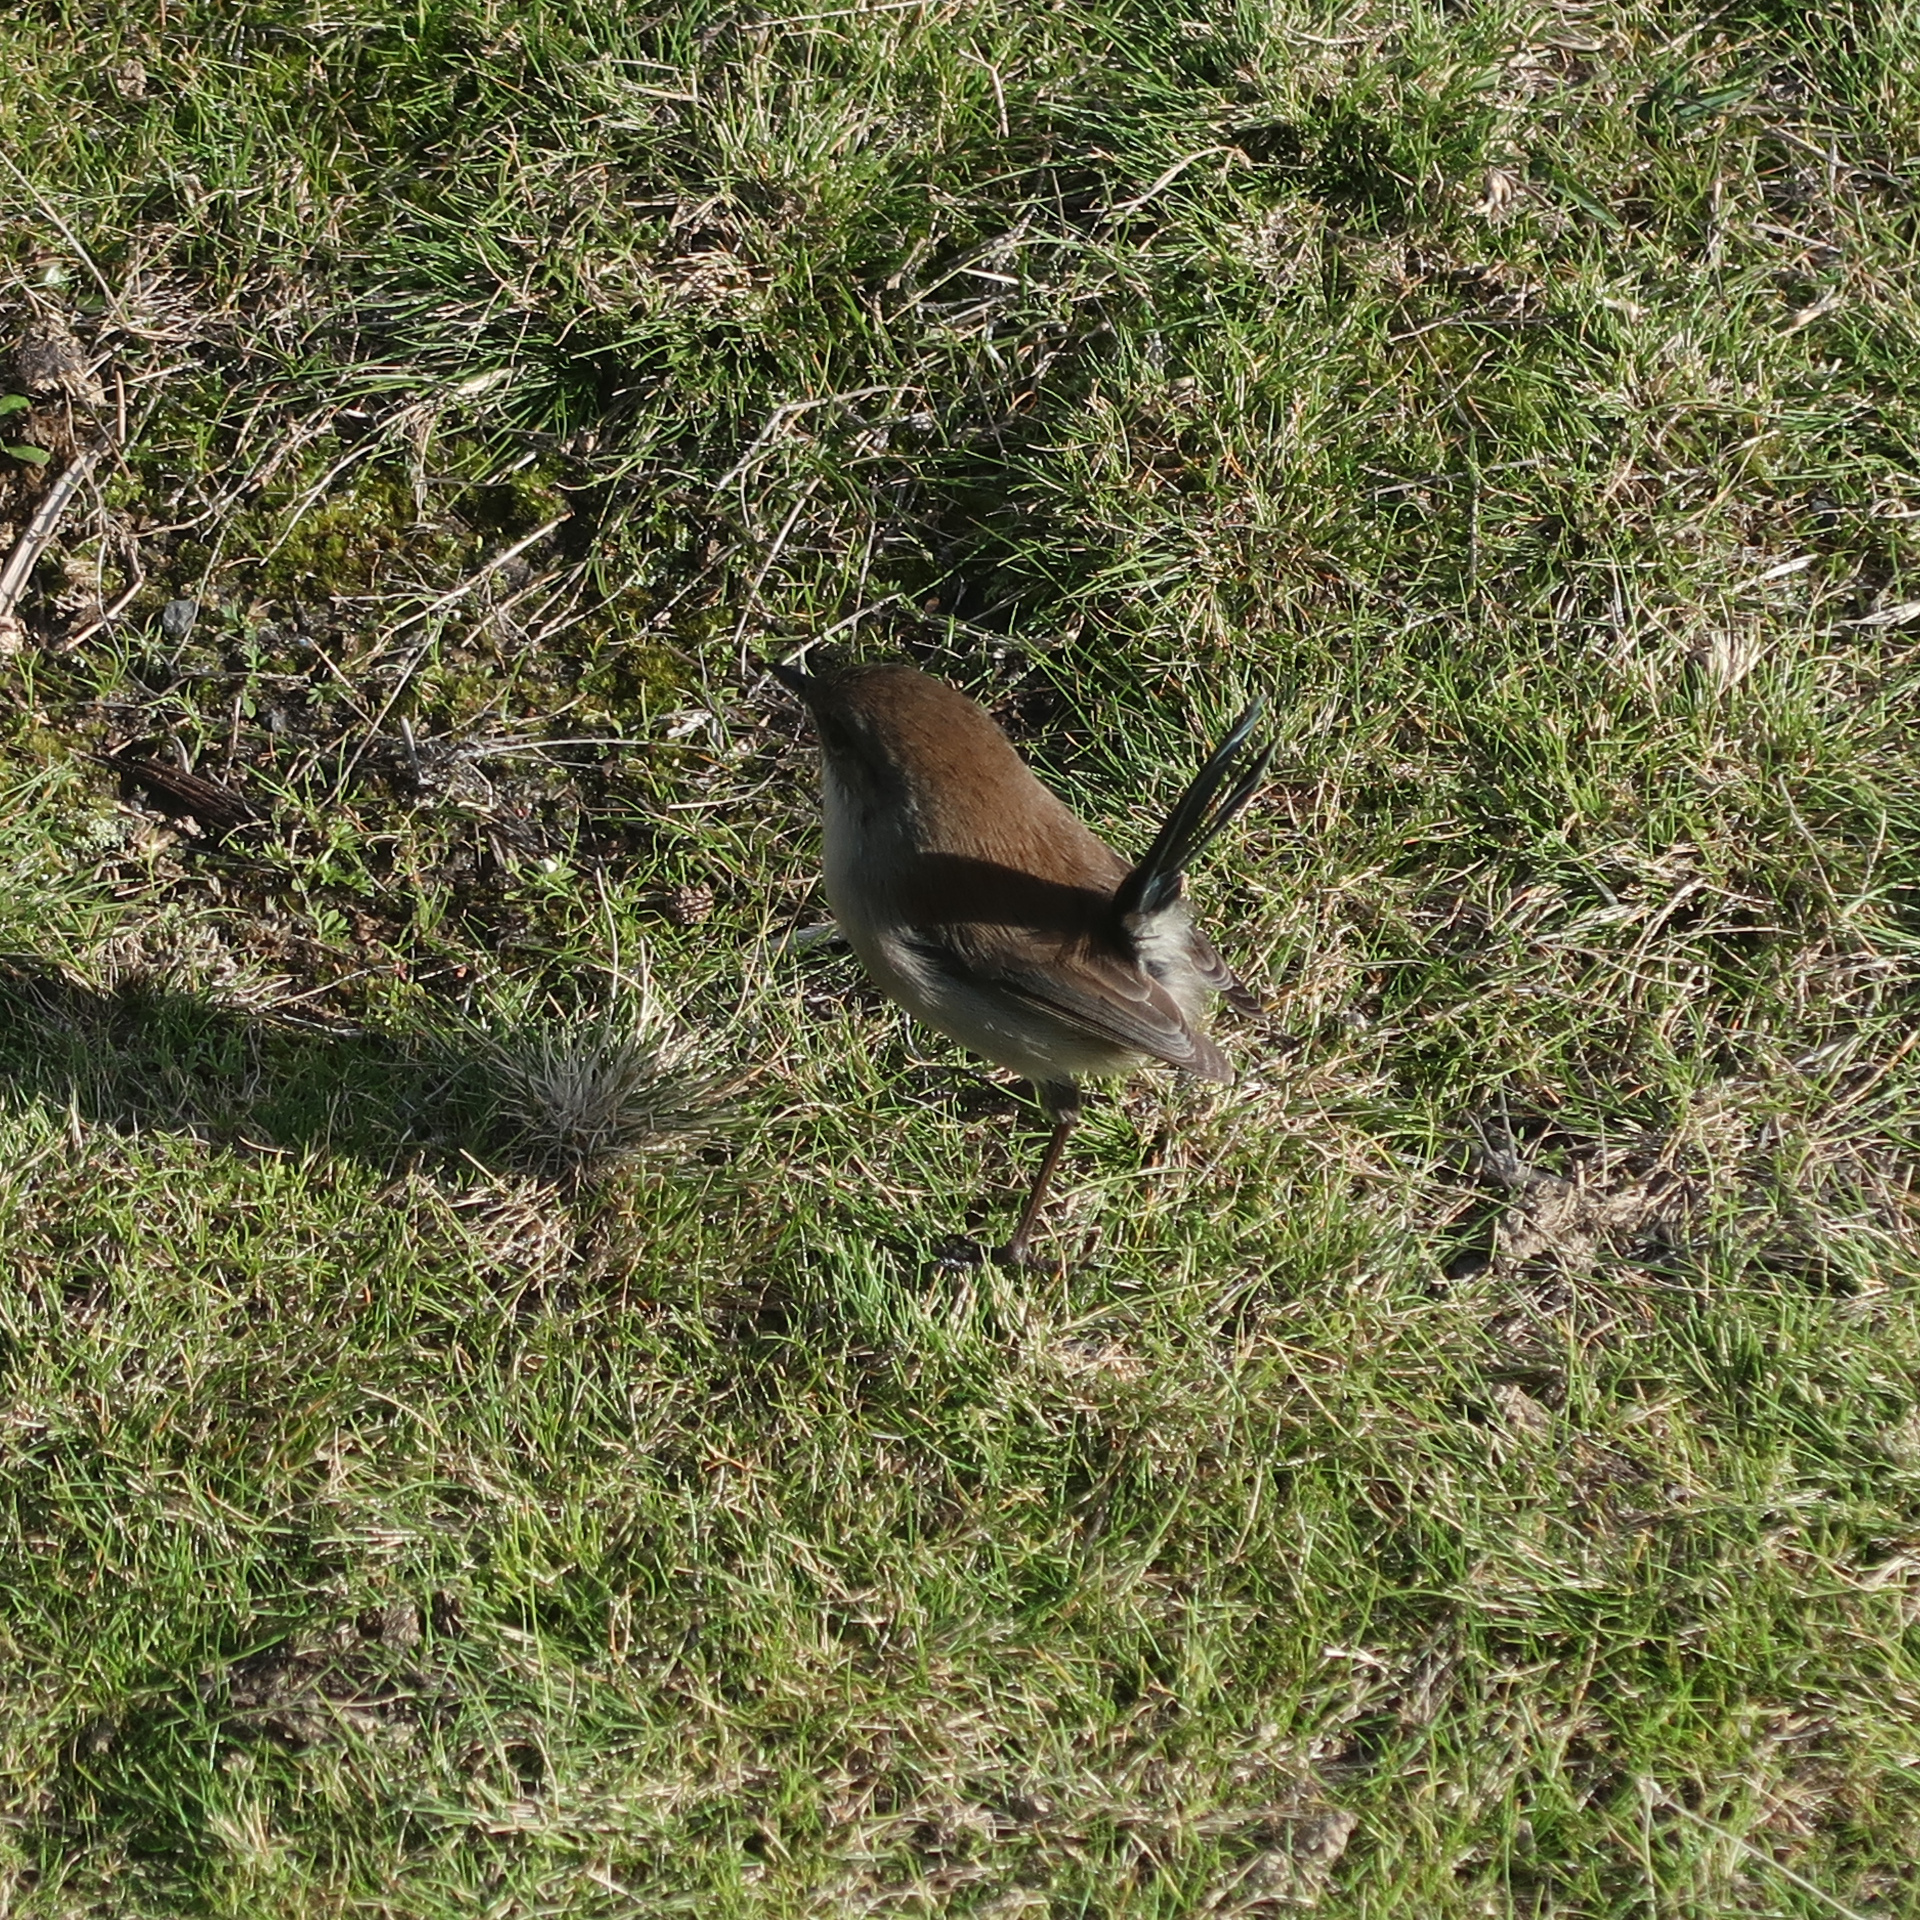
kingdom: Animalia
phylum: Chordata
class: Aves
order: Passeriformes
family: Maluridae
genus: Malurus
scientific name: Malurus cyaneus
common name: Superb fairywren
